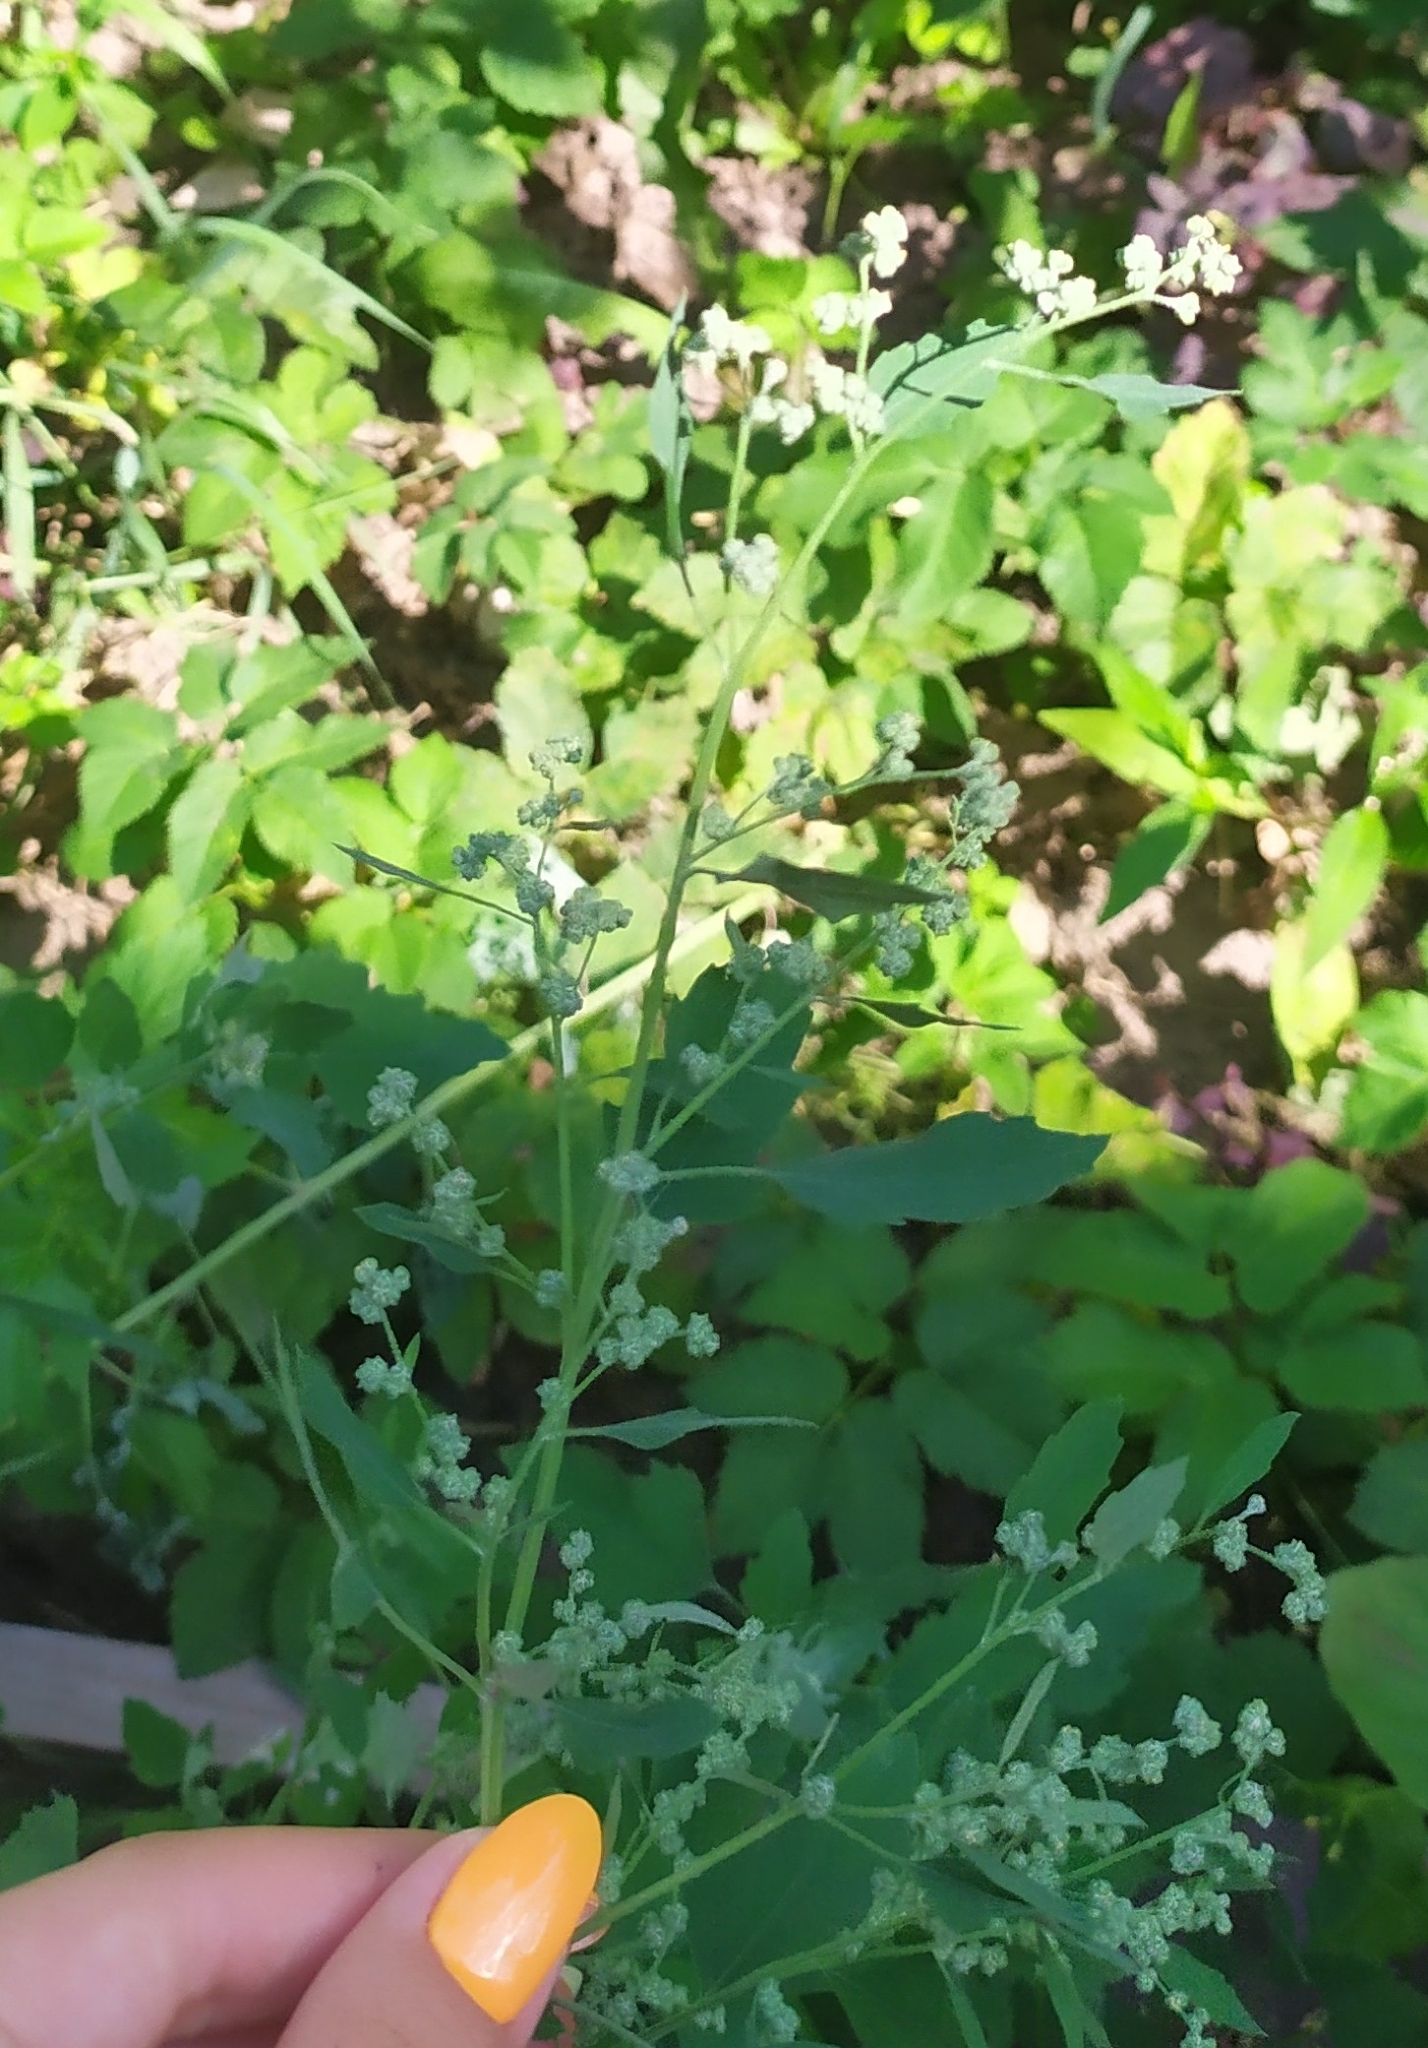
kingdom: Plantae
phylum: Tracheophyta
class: Magnoliopsida
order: Caryophyllales
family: Amaranthaceae
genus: Chenopodium
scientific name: Chenopodium album
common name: Fat-hen
